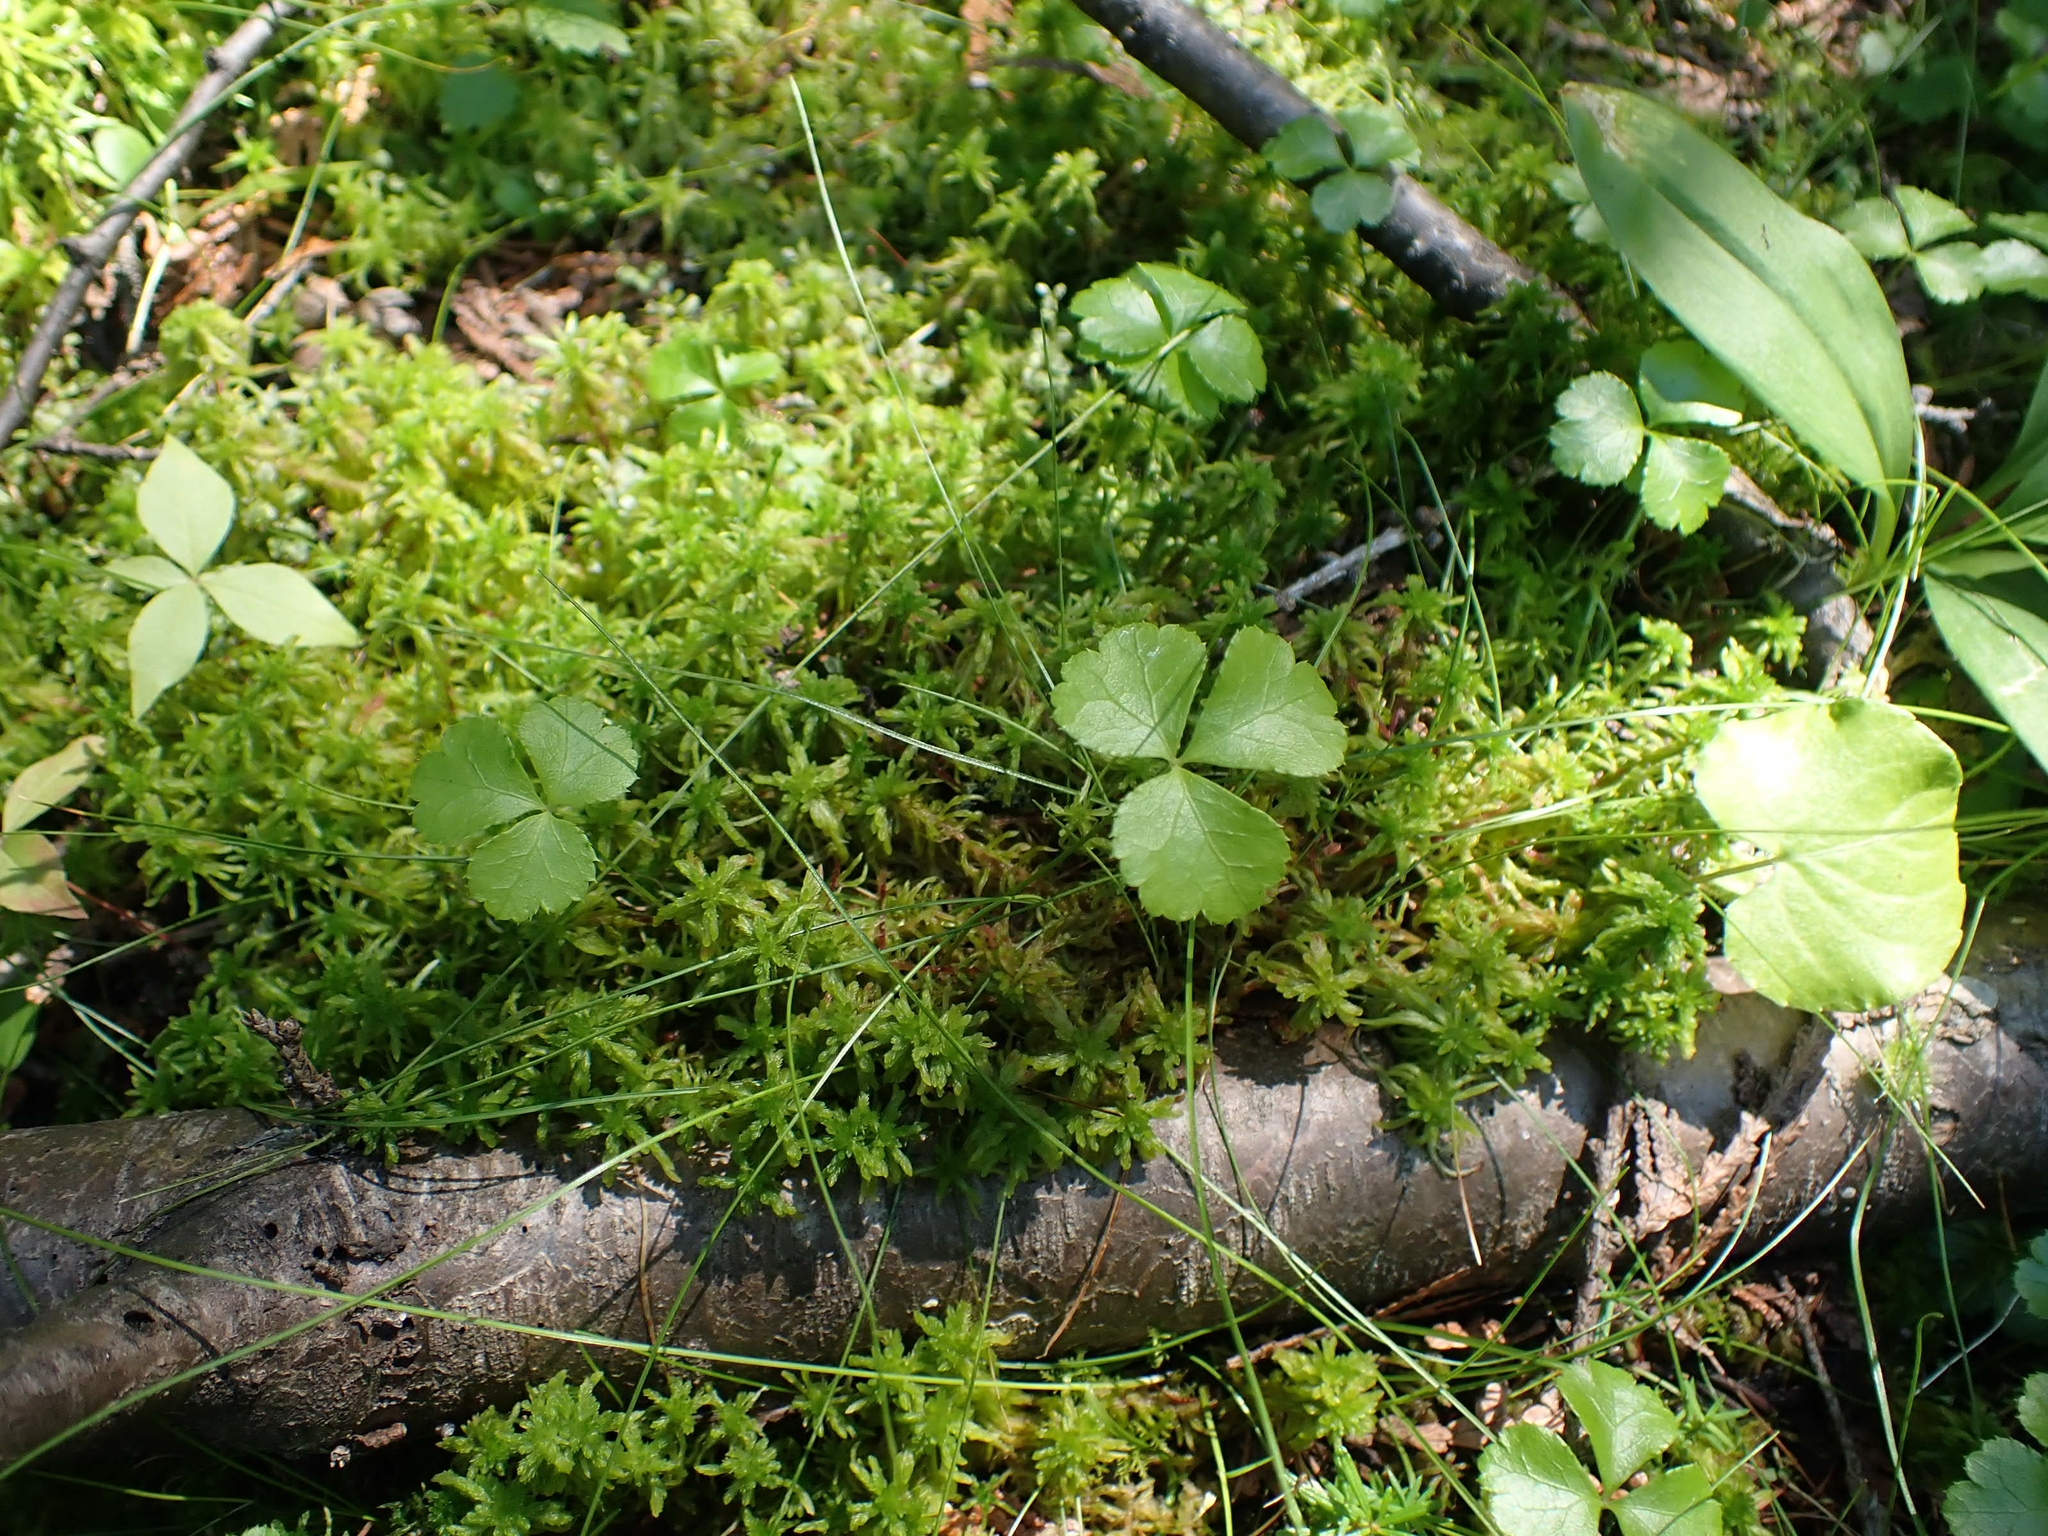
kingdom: Plantae
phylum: Tracheophyta
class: Magnoliopsida
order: Ranunculales
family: Ranunculaceae
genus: Coptis
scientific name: Coptis trifolia
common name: Canker-root
